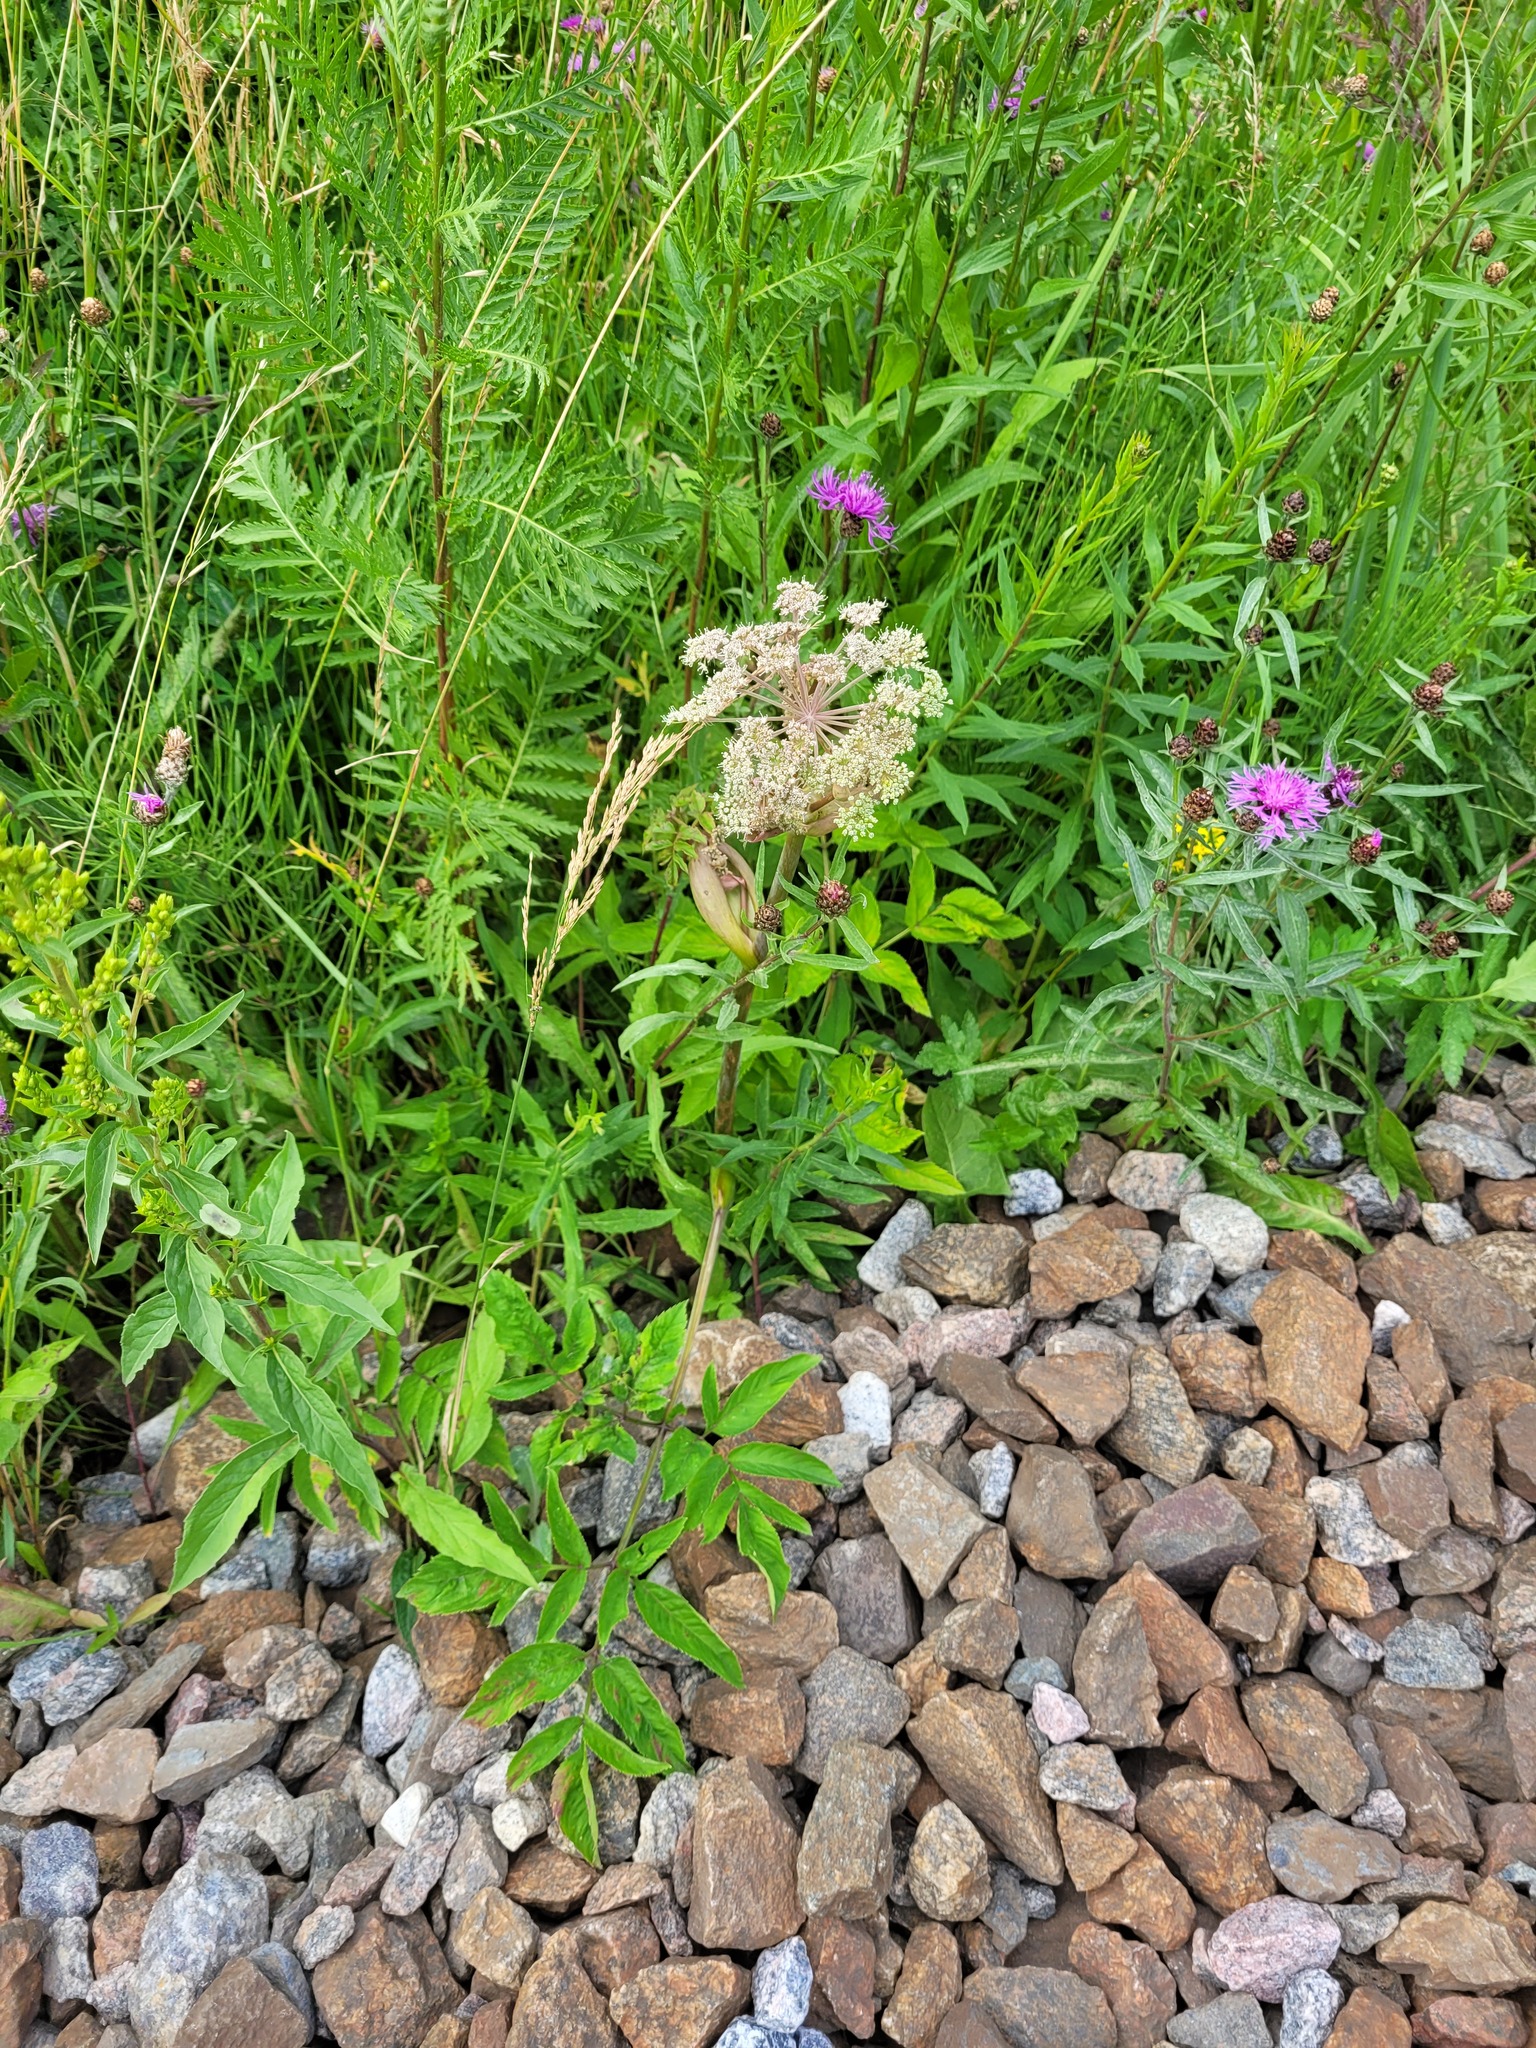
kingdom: Plantae
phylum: Tracheophyta
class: Magnoliopsida
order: Apiales
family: Apiaceae
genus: Angelica
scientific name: Angelica sylvestris
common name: Wild angelica
